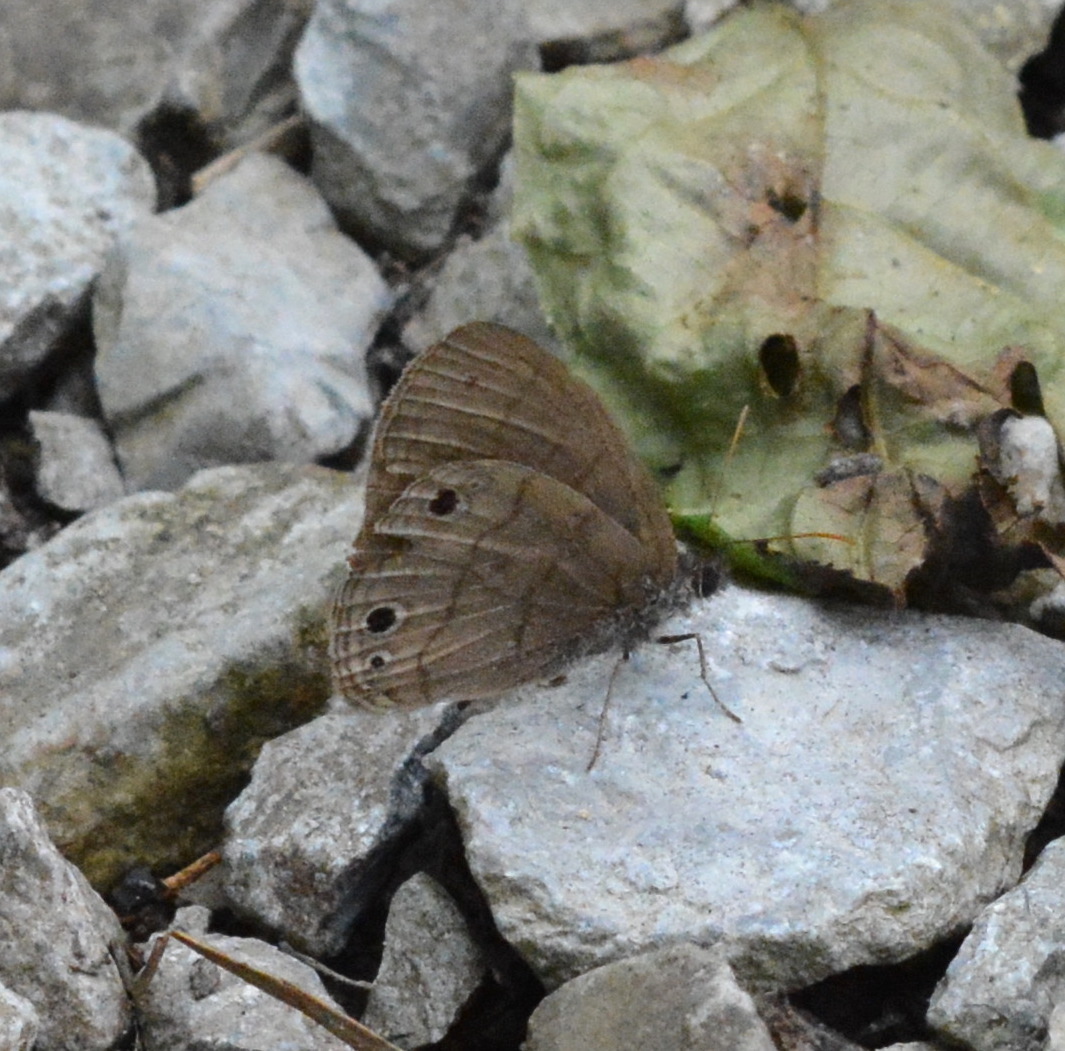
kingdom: Animalia
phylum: Arthropoda
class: Insecta
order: Lepidoptera
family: Nymphalidae
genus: Hermeuptychia
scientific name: Hermeuptychia hermes
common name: Hermes satyr
